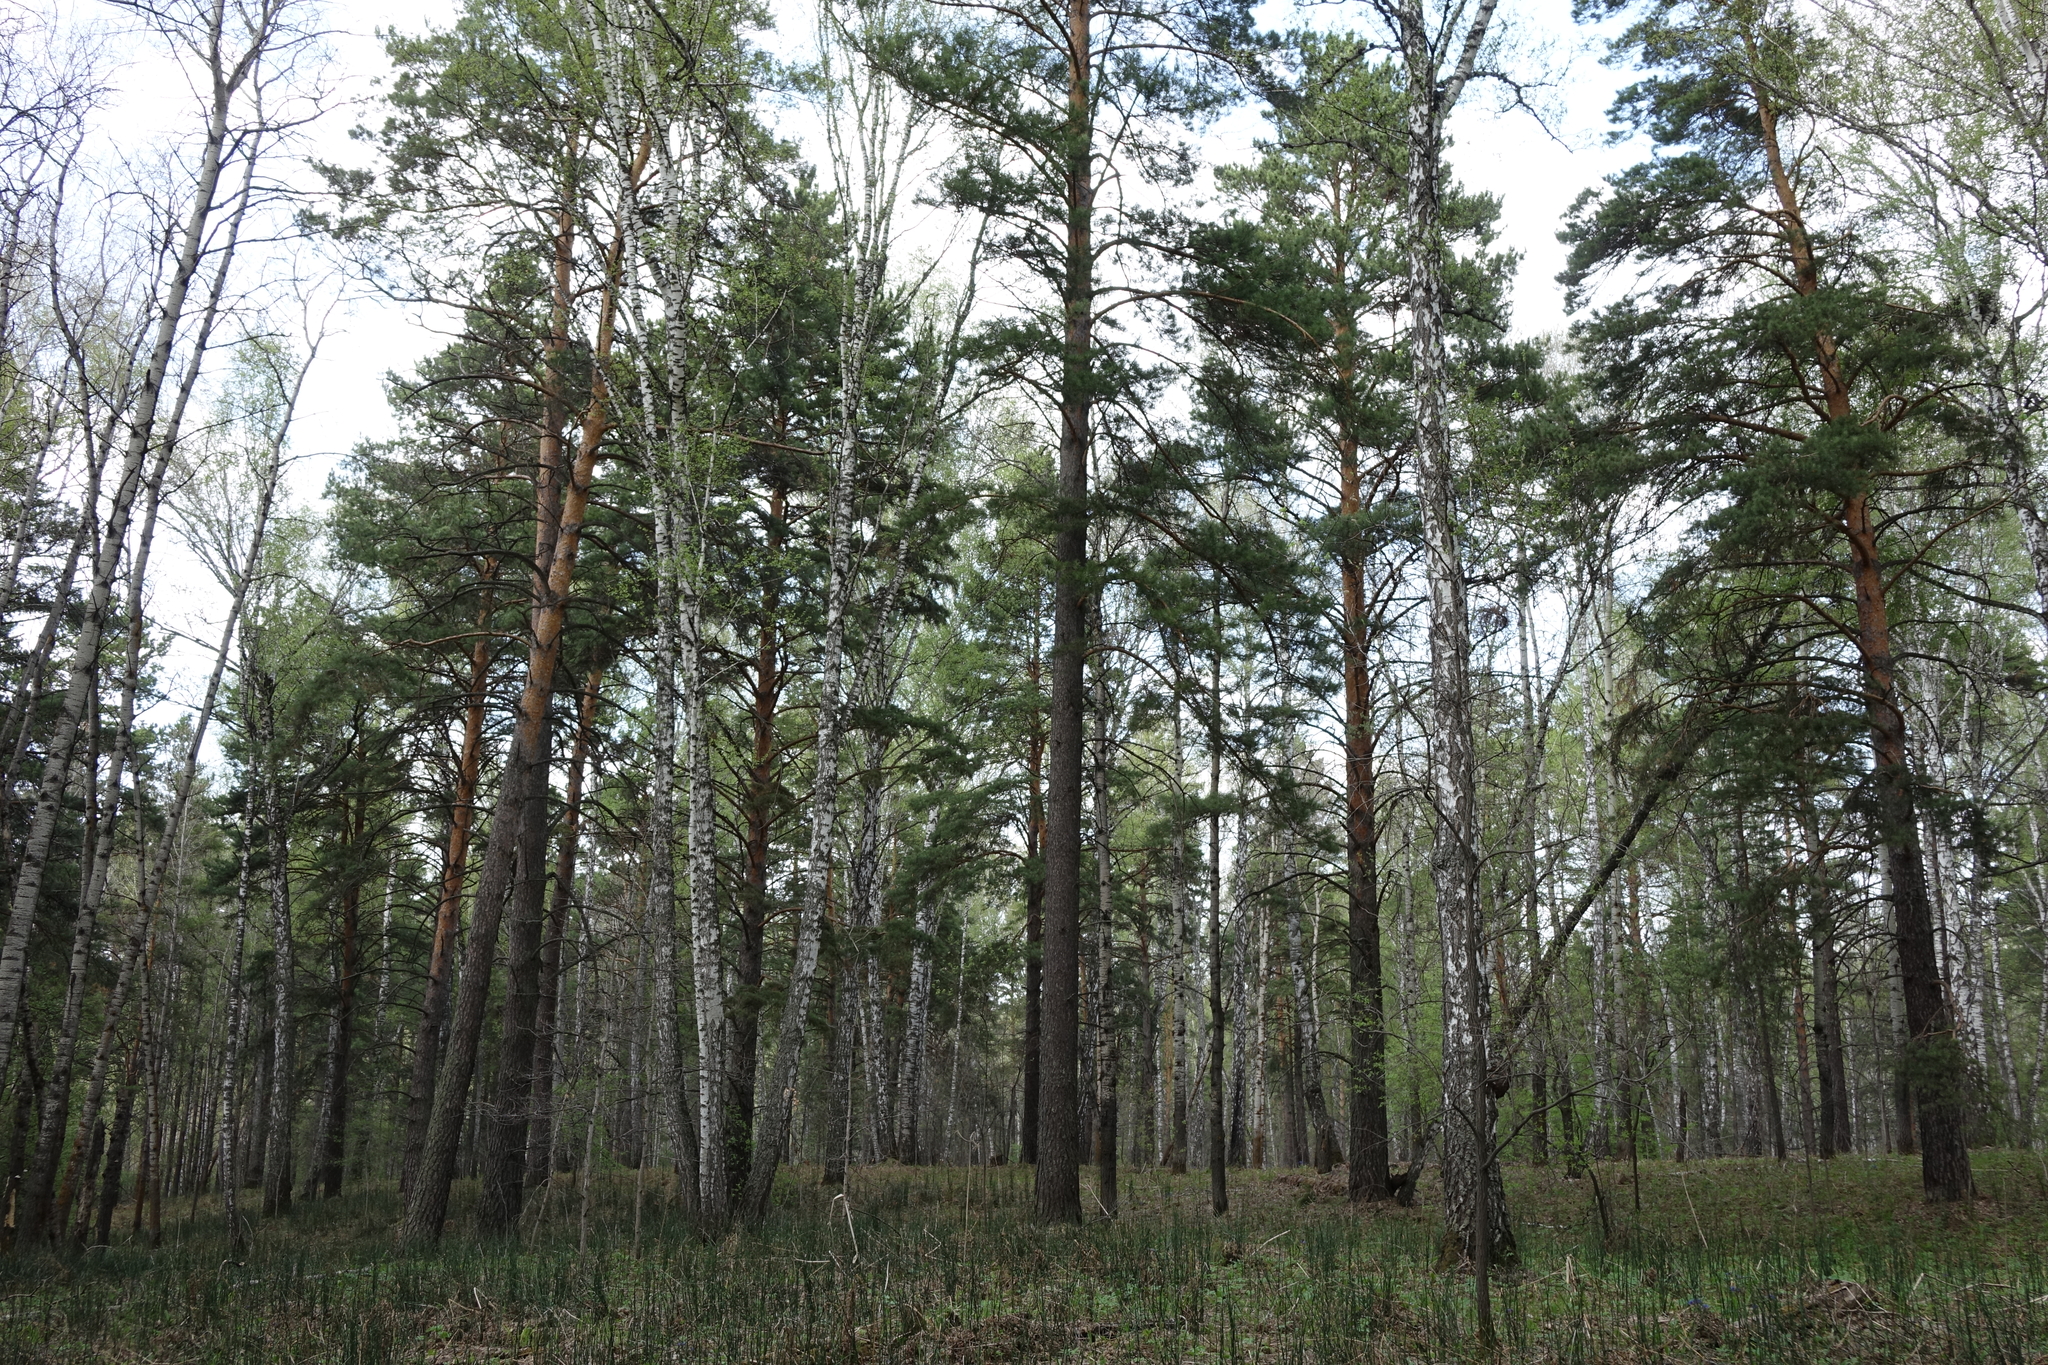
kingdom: Plantae
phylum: Tracheophyta
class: Pinopsida
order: Pinales
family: Pinaceae
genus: Pinus
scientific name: Pinus sylvestris
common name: Scots pine
